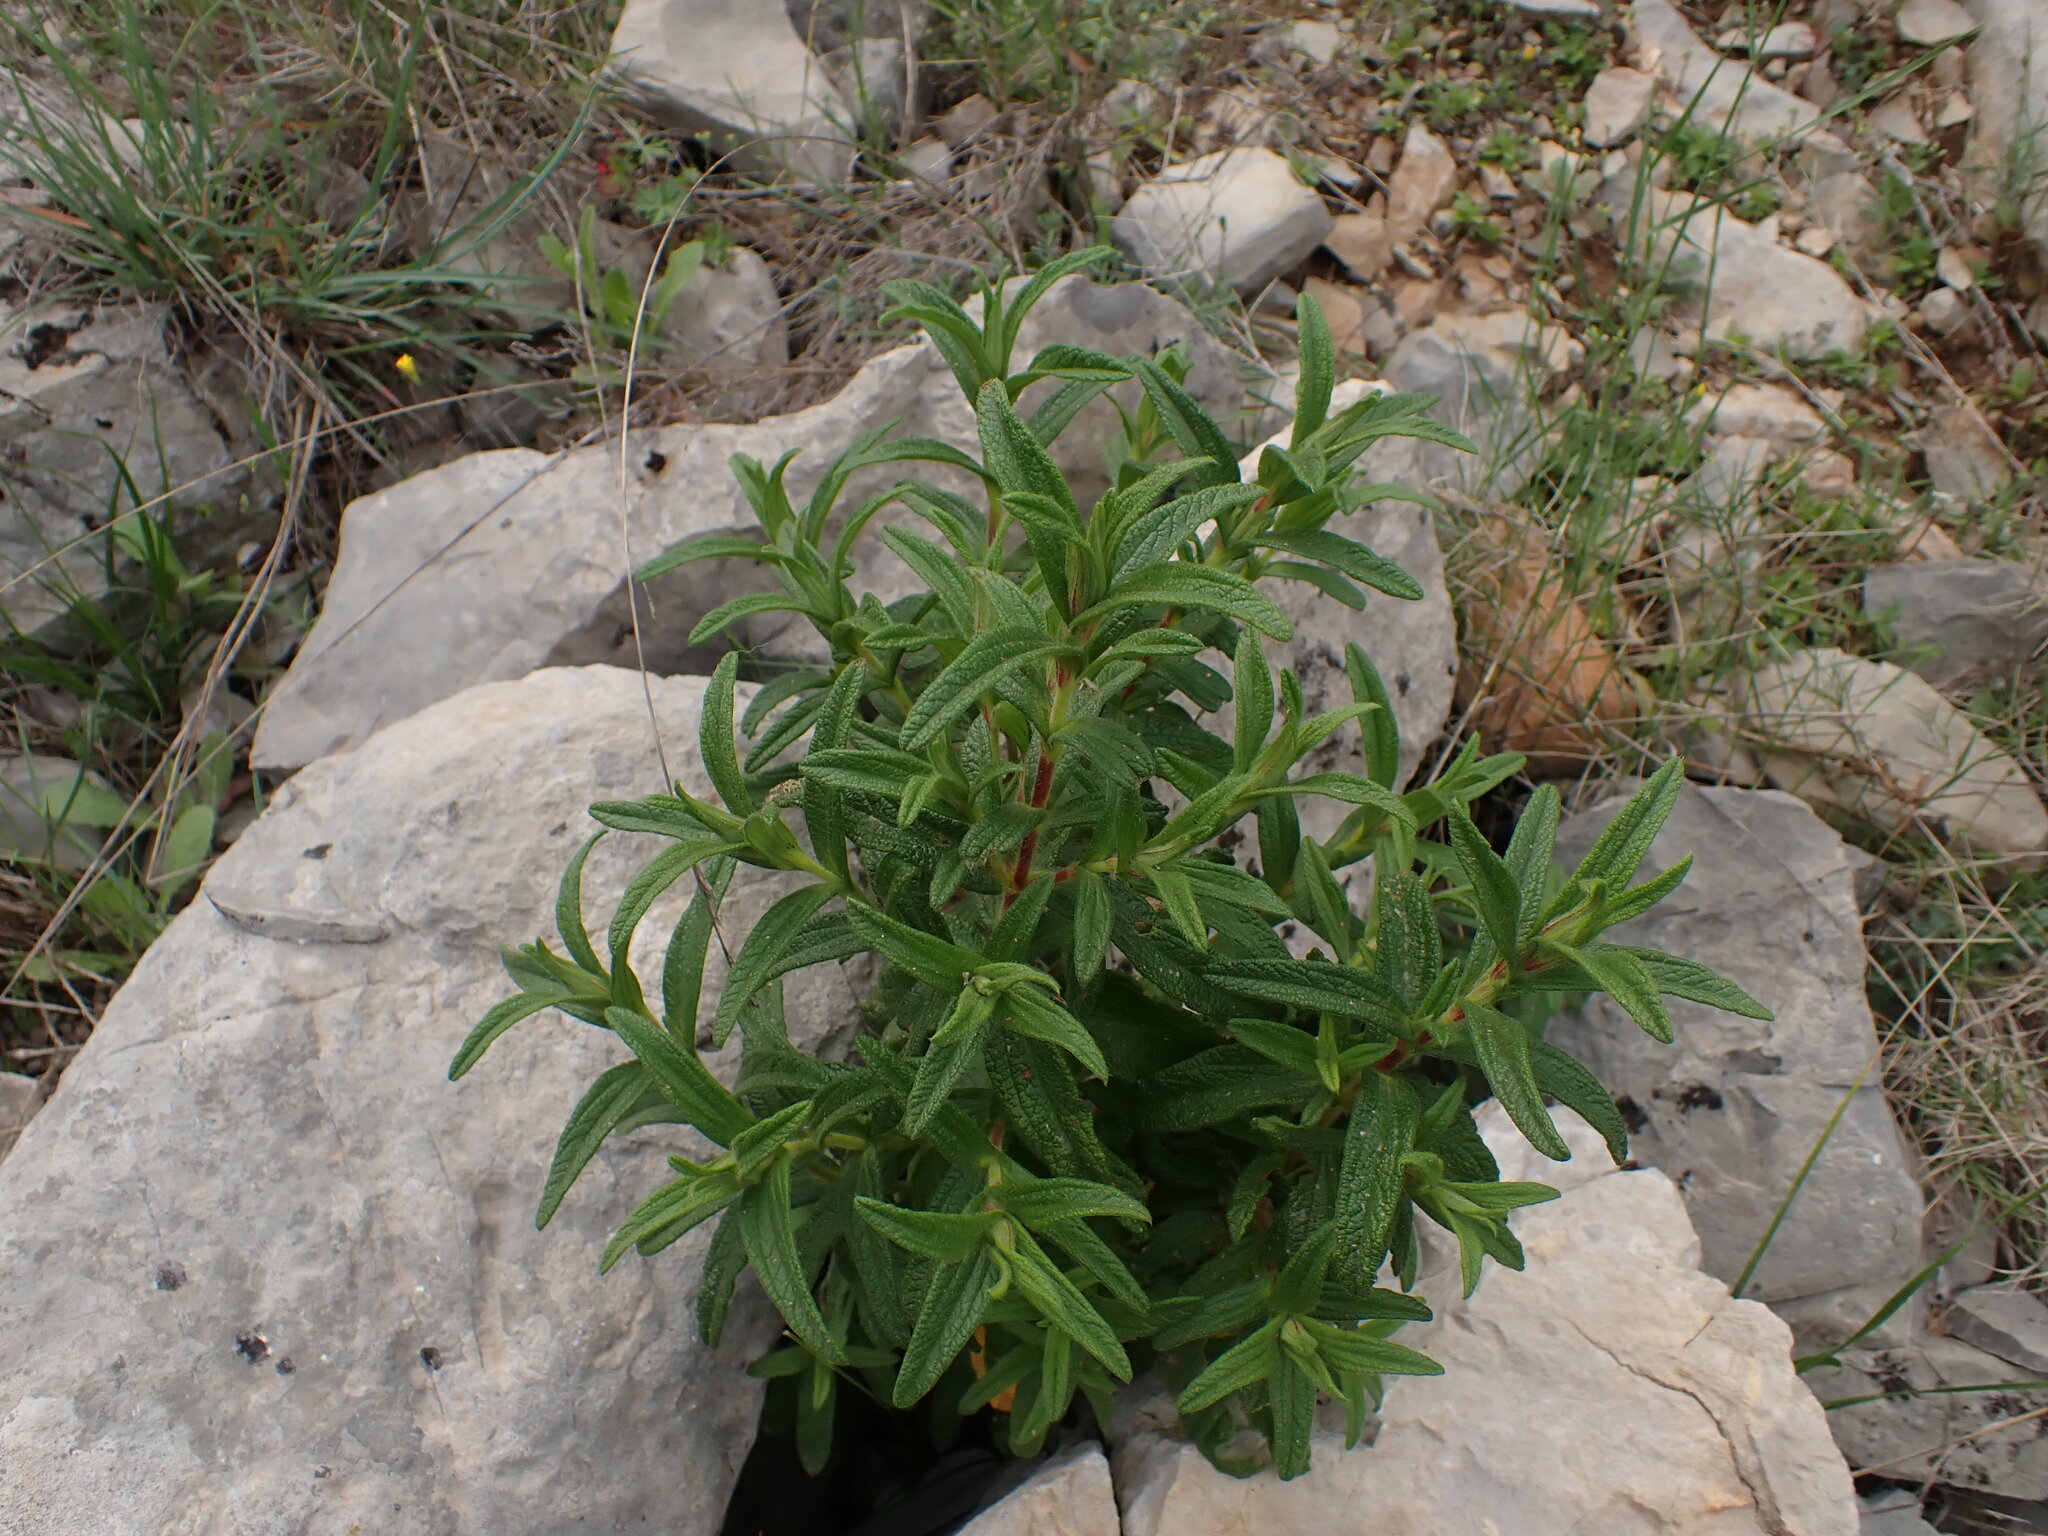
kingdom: Plantae
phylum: Tracheophyta
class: Magnoliopsida
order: Malvales
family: Cistaceae
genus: Cistus
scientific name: Cistus monspeliensis
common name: Montpelier cistus
